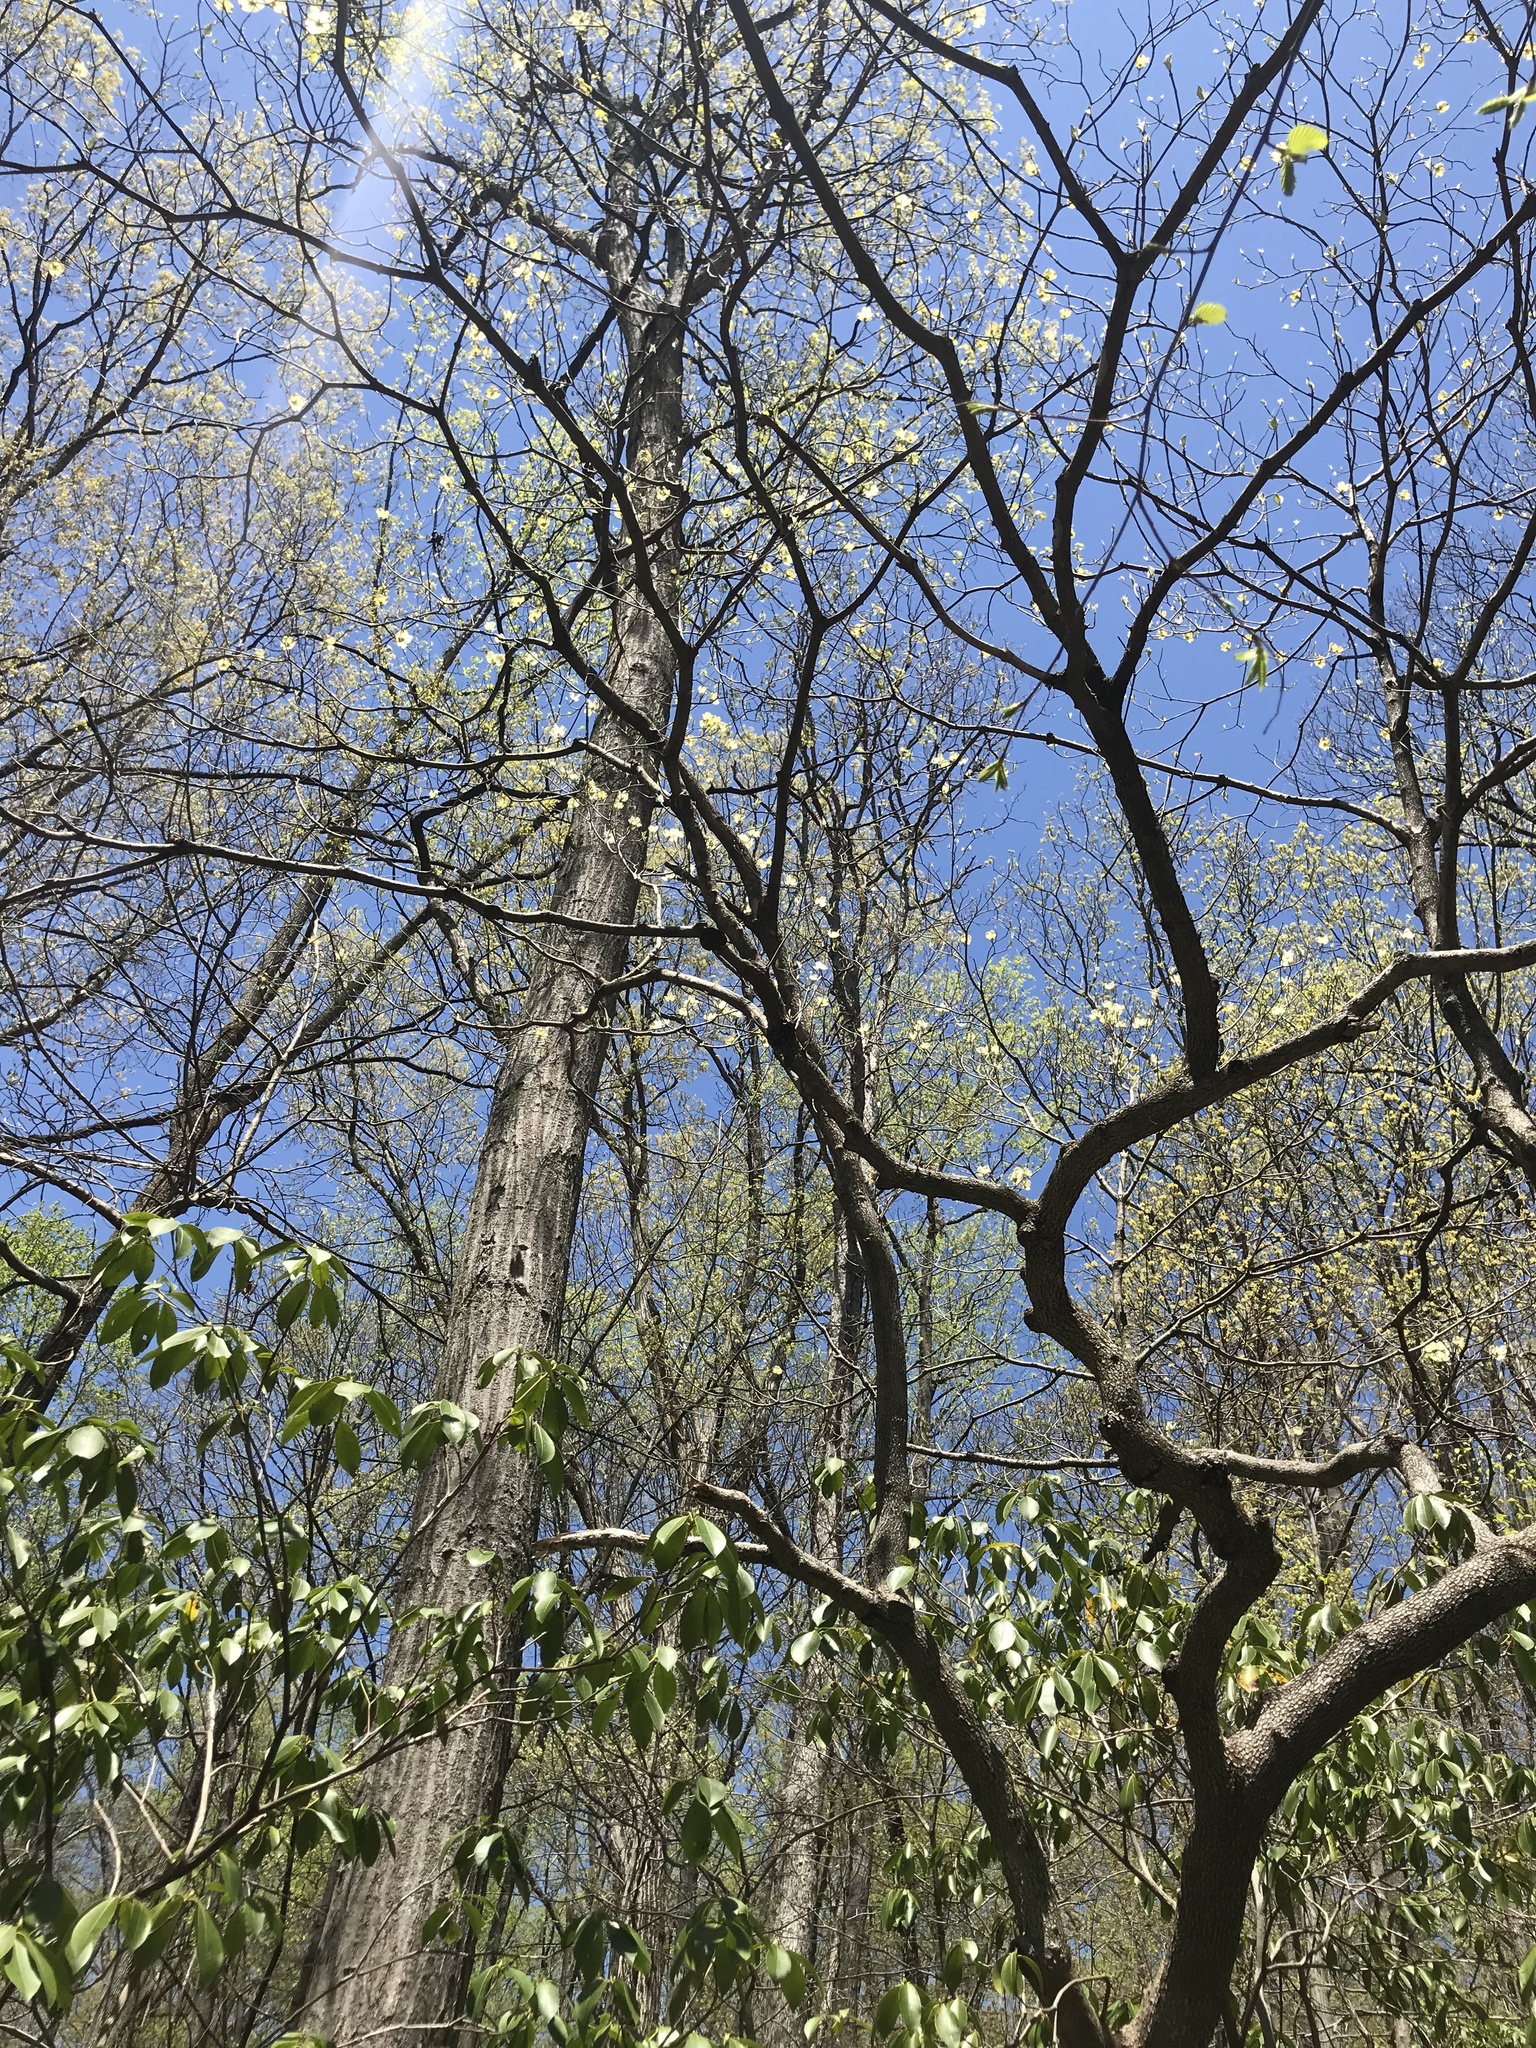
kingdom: Plantae
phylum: Tracheophyta
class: Magnoliopsida
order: Ericales
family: Ericaceae
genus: Kalmia
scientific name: Kalmia latifolia
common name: Mountain-laurel
